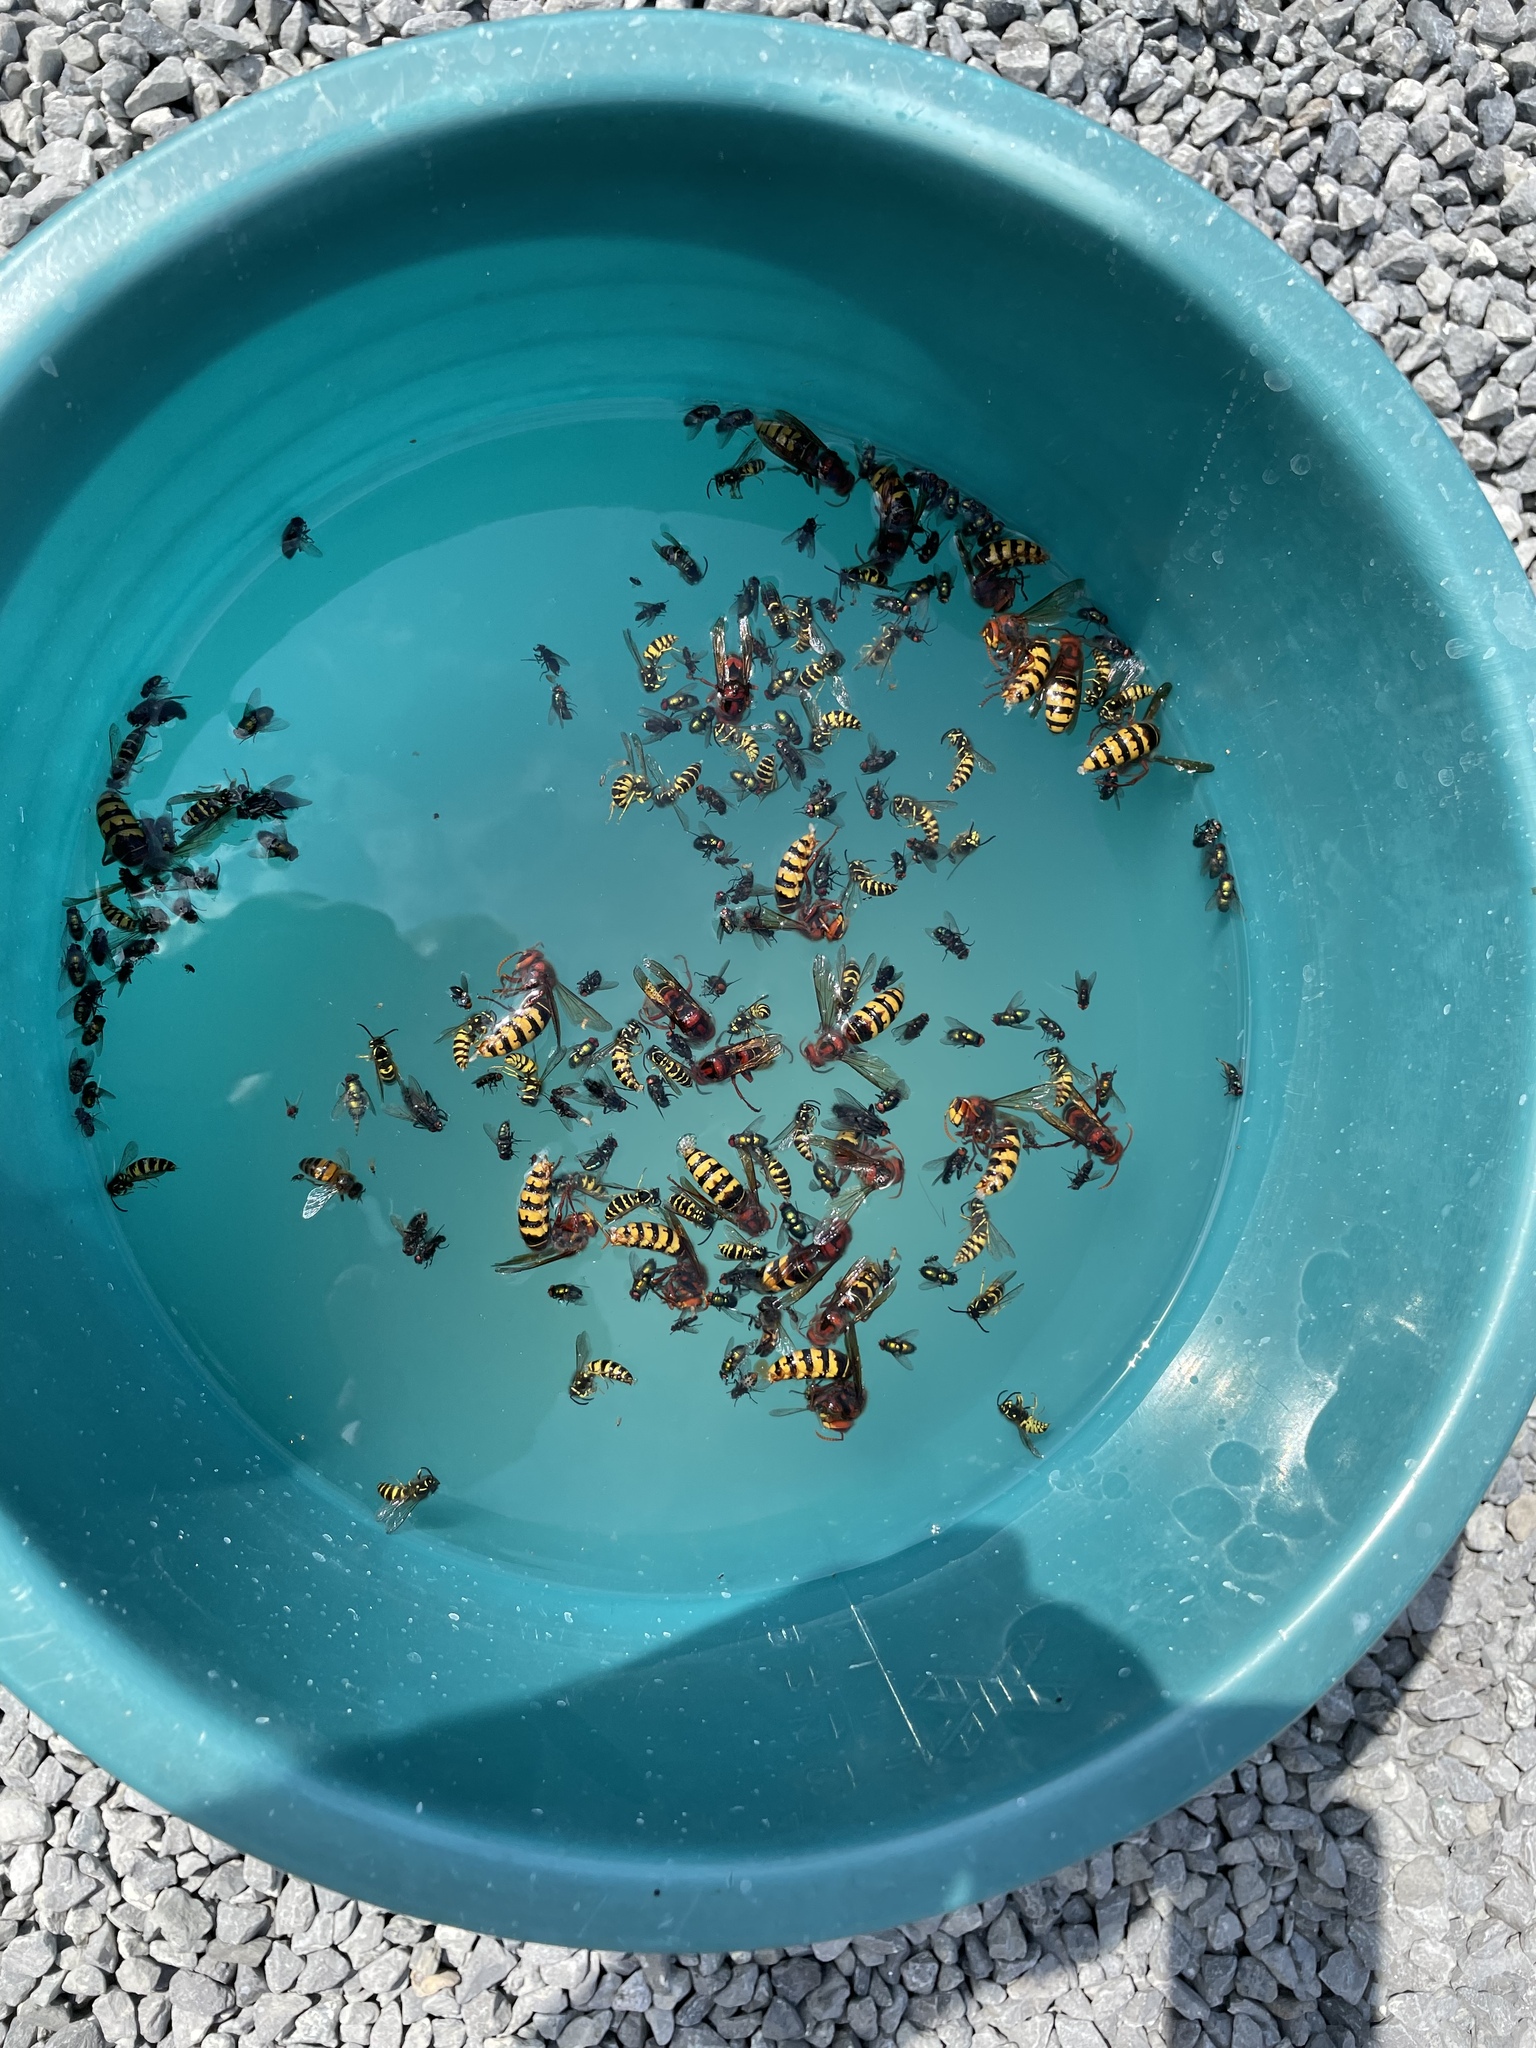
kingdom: Animalia
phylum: Arthropoda
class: Insecta
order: Hymenoptera
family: Vespidae
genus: Vespa
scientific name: Vespa crabro
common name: Hornet
